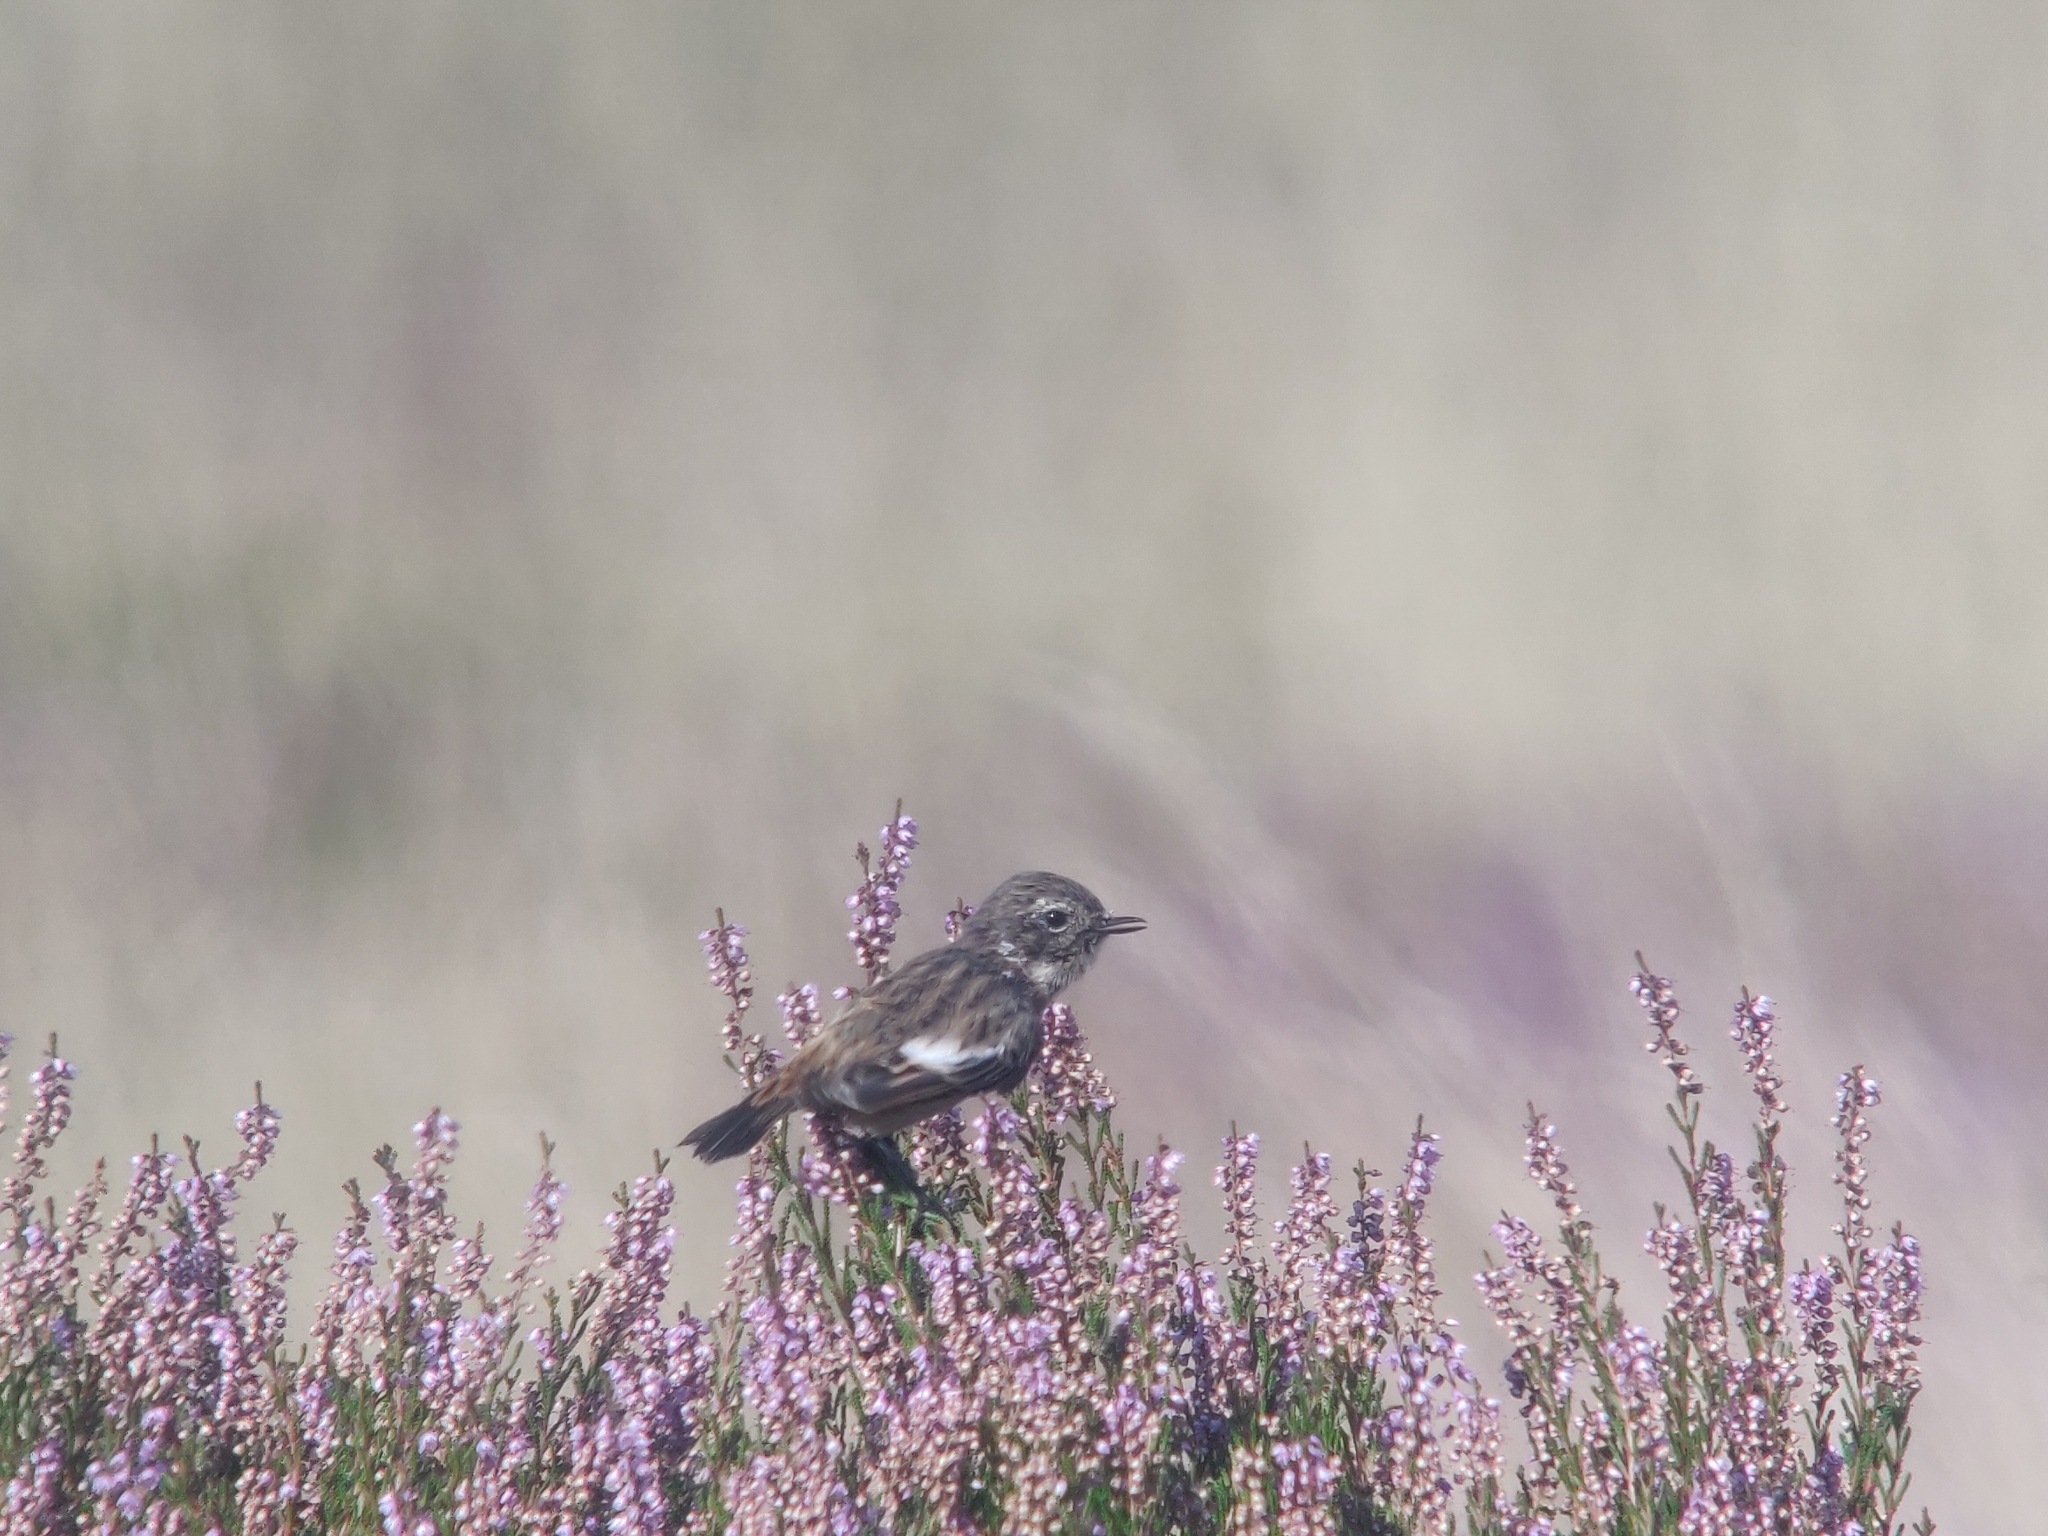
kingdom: Animalia
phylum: Chordata
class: Aves
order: Passeriformes
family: Muscicapidae
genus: Saxicola
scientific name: Saxicola rubicola
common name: European stonechat
